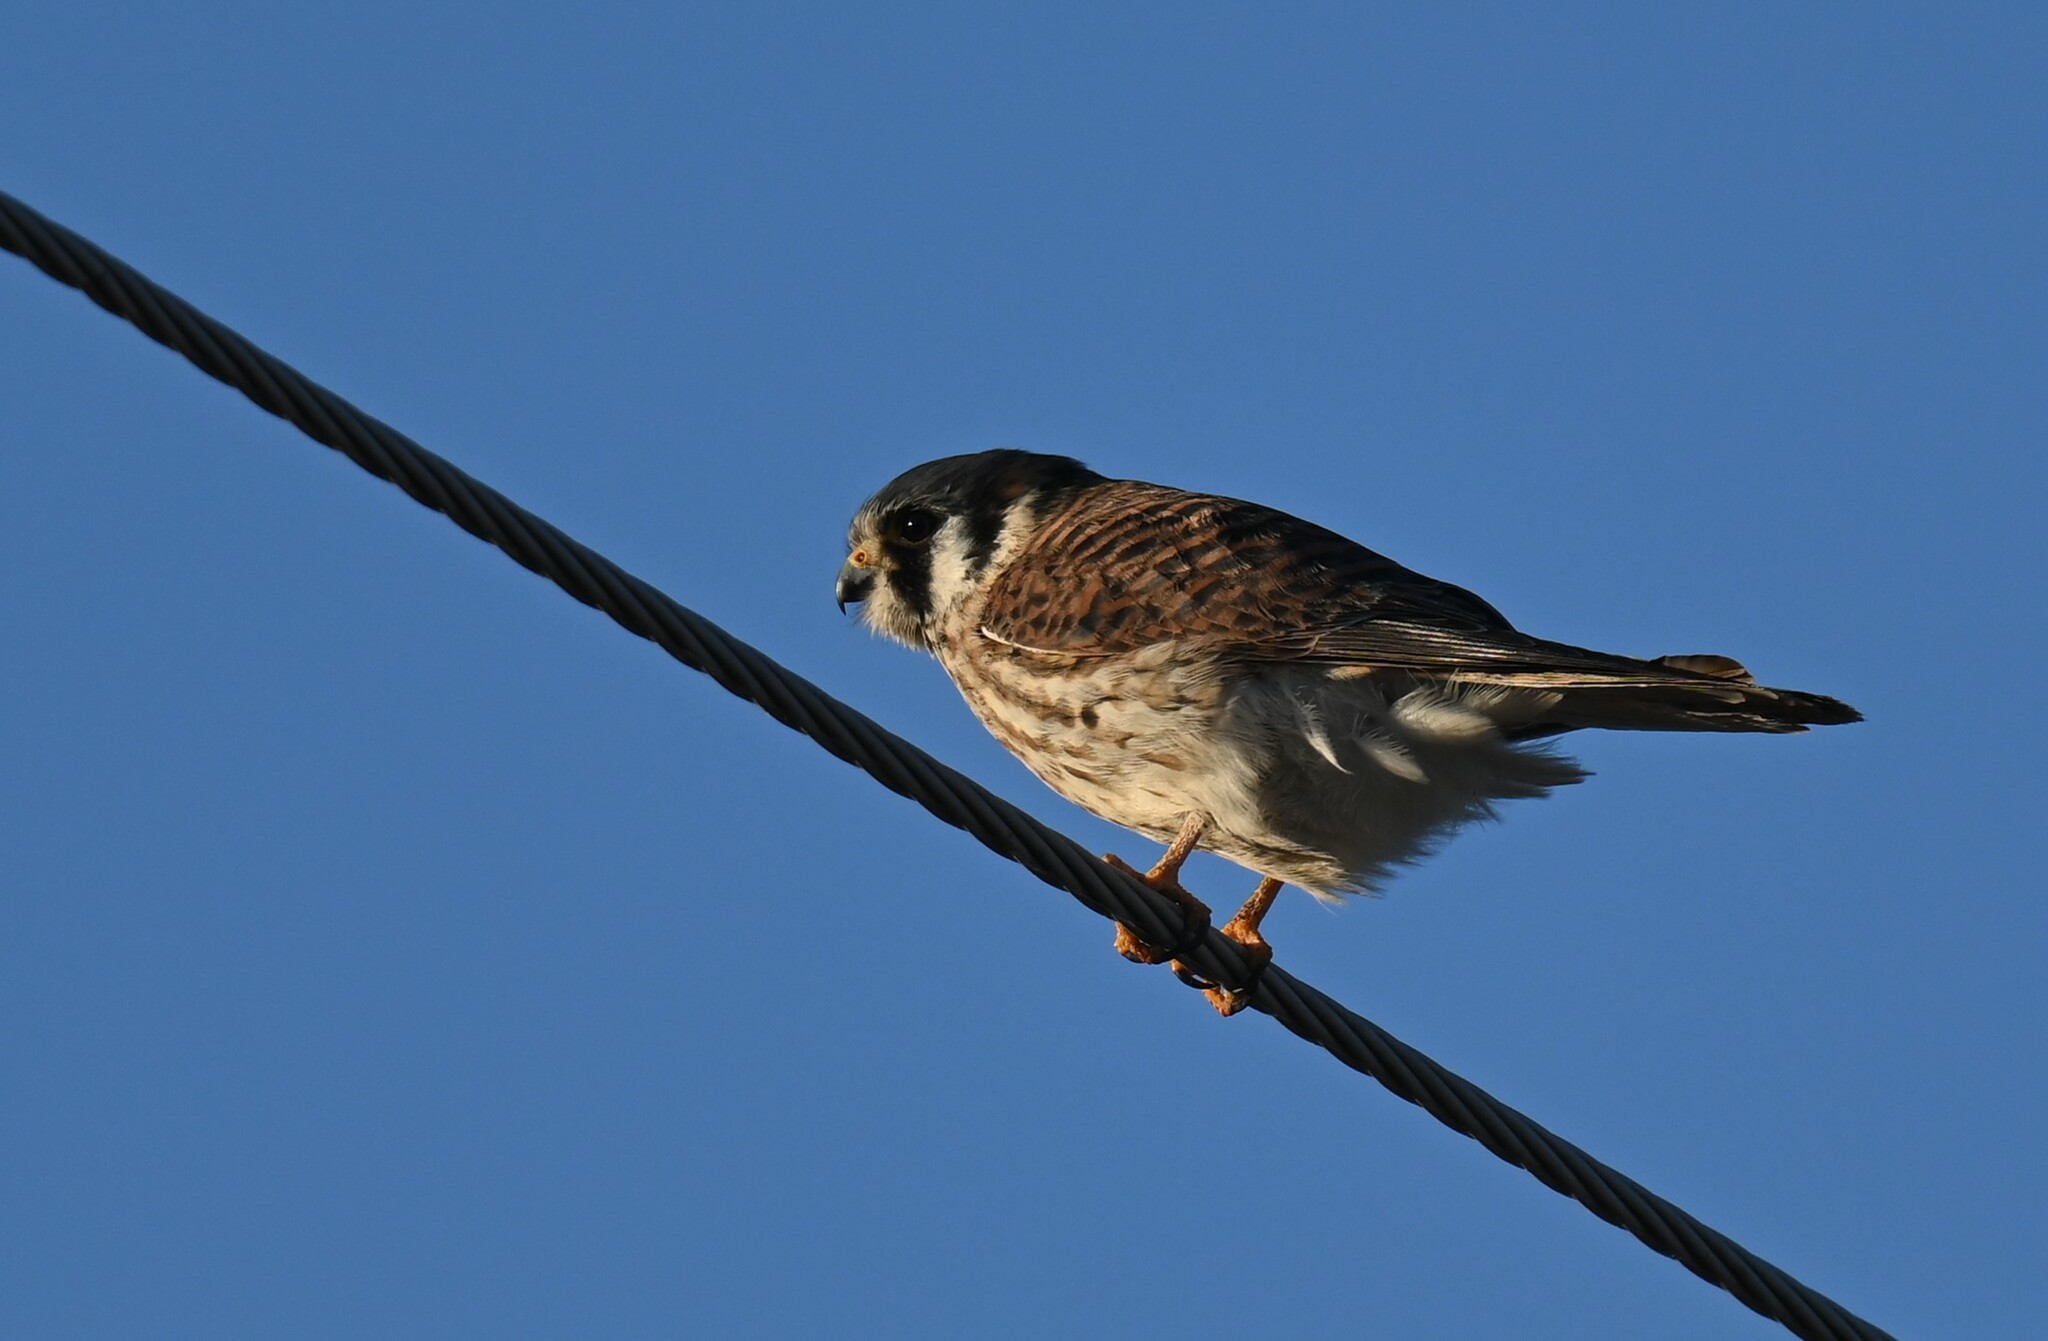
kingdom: Animalia
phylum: Chordata
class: Aves
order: Falconiformes
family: Falconidae
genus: Falco
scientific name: Falco sparverius
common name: American kestrel
